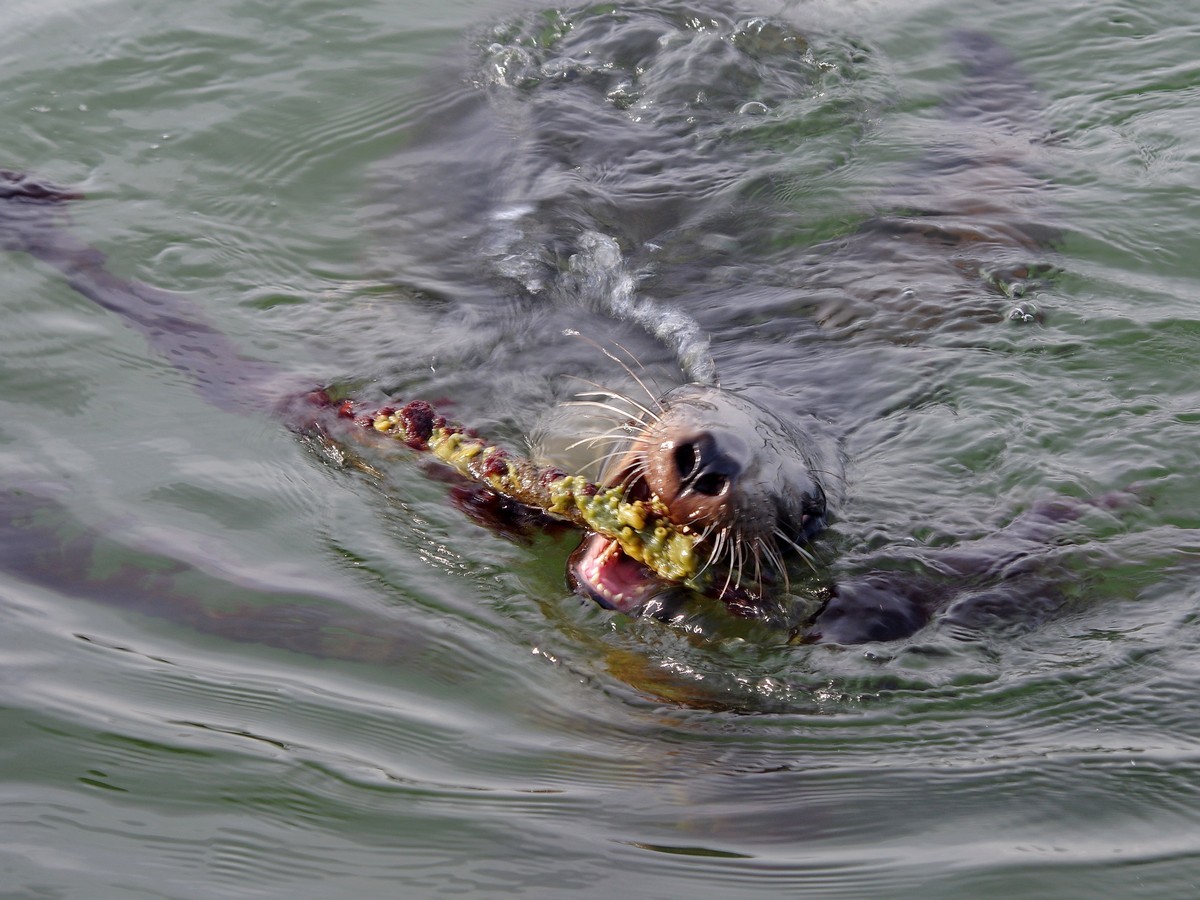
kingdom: Animalia
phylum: Chordata
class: Mammalia
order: Carnivora
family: Otariidae
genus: Phocarctos
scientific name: Phocarctos hookeri
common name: New zealand sea lion
